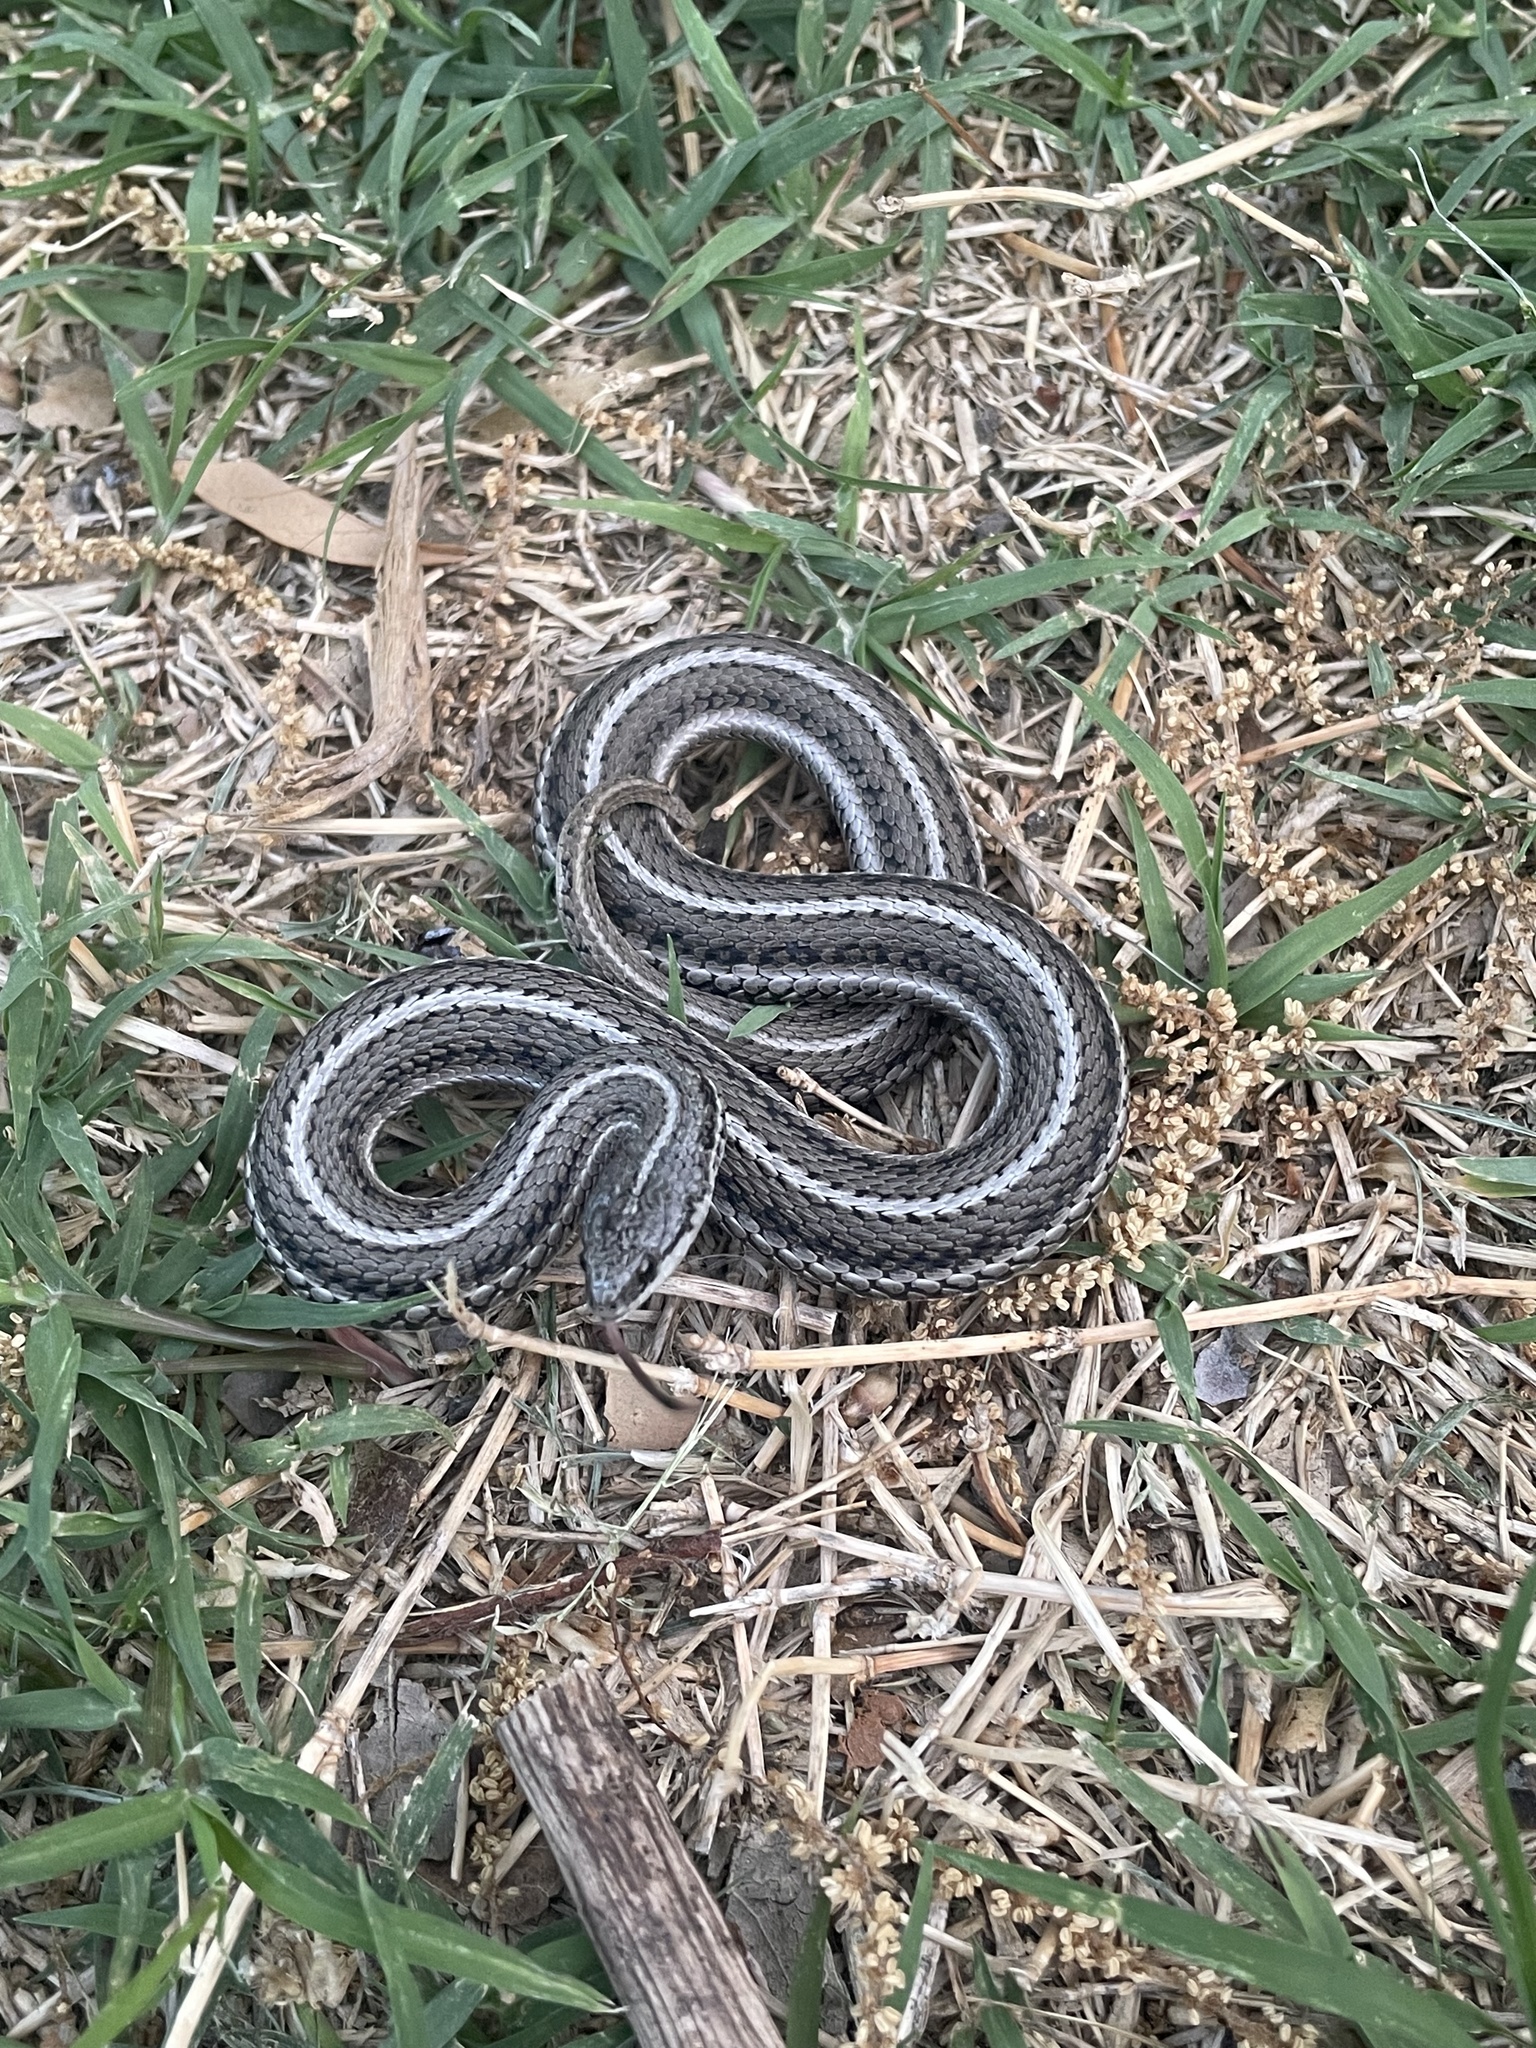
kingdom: Animalia
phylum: Chordata
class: Squamata
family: Colubridae
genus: Tropidoclonion
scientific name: Tropidoclonion lineatum
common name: Lined snake
